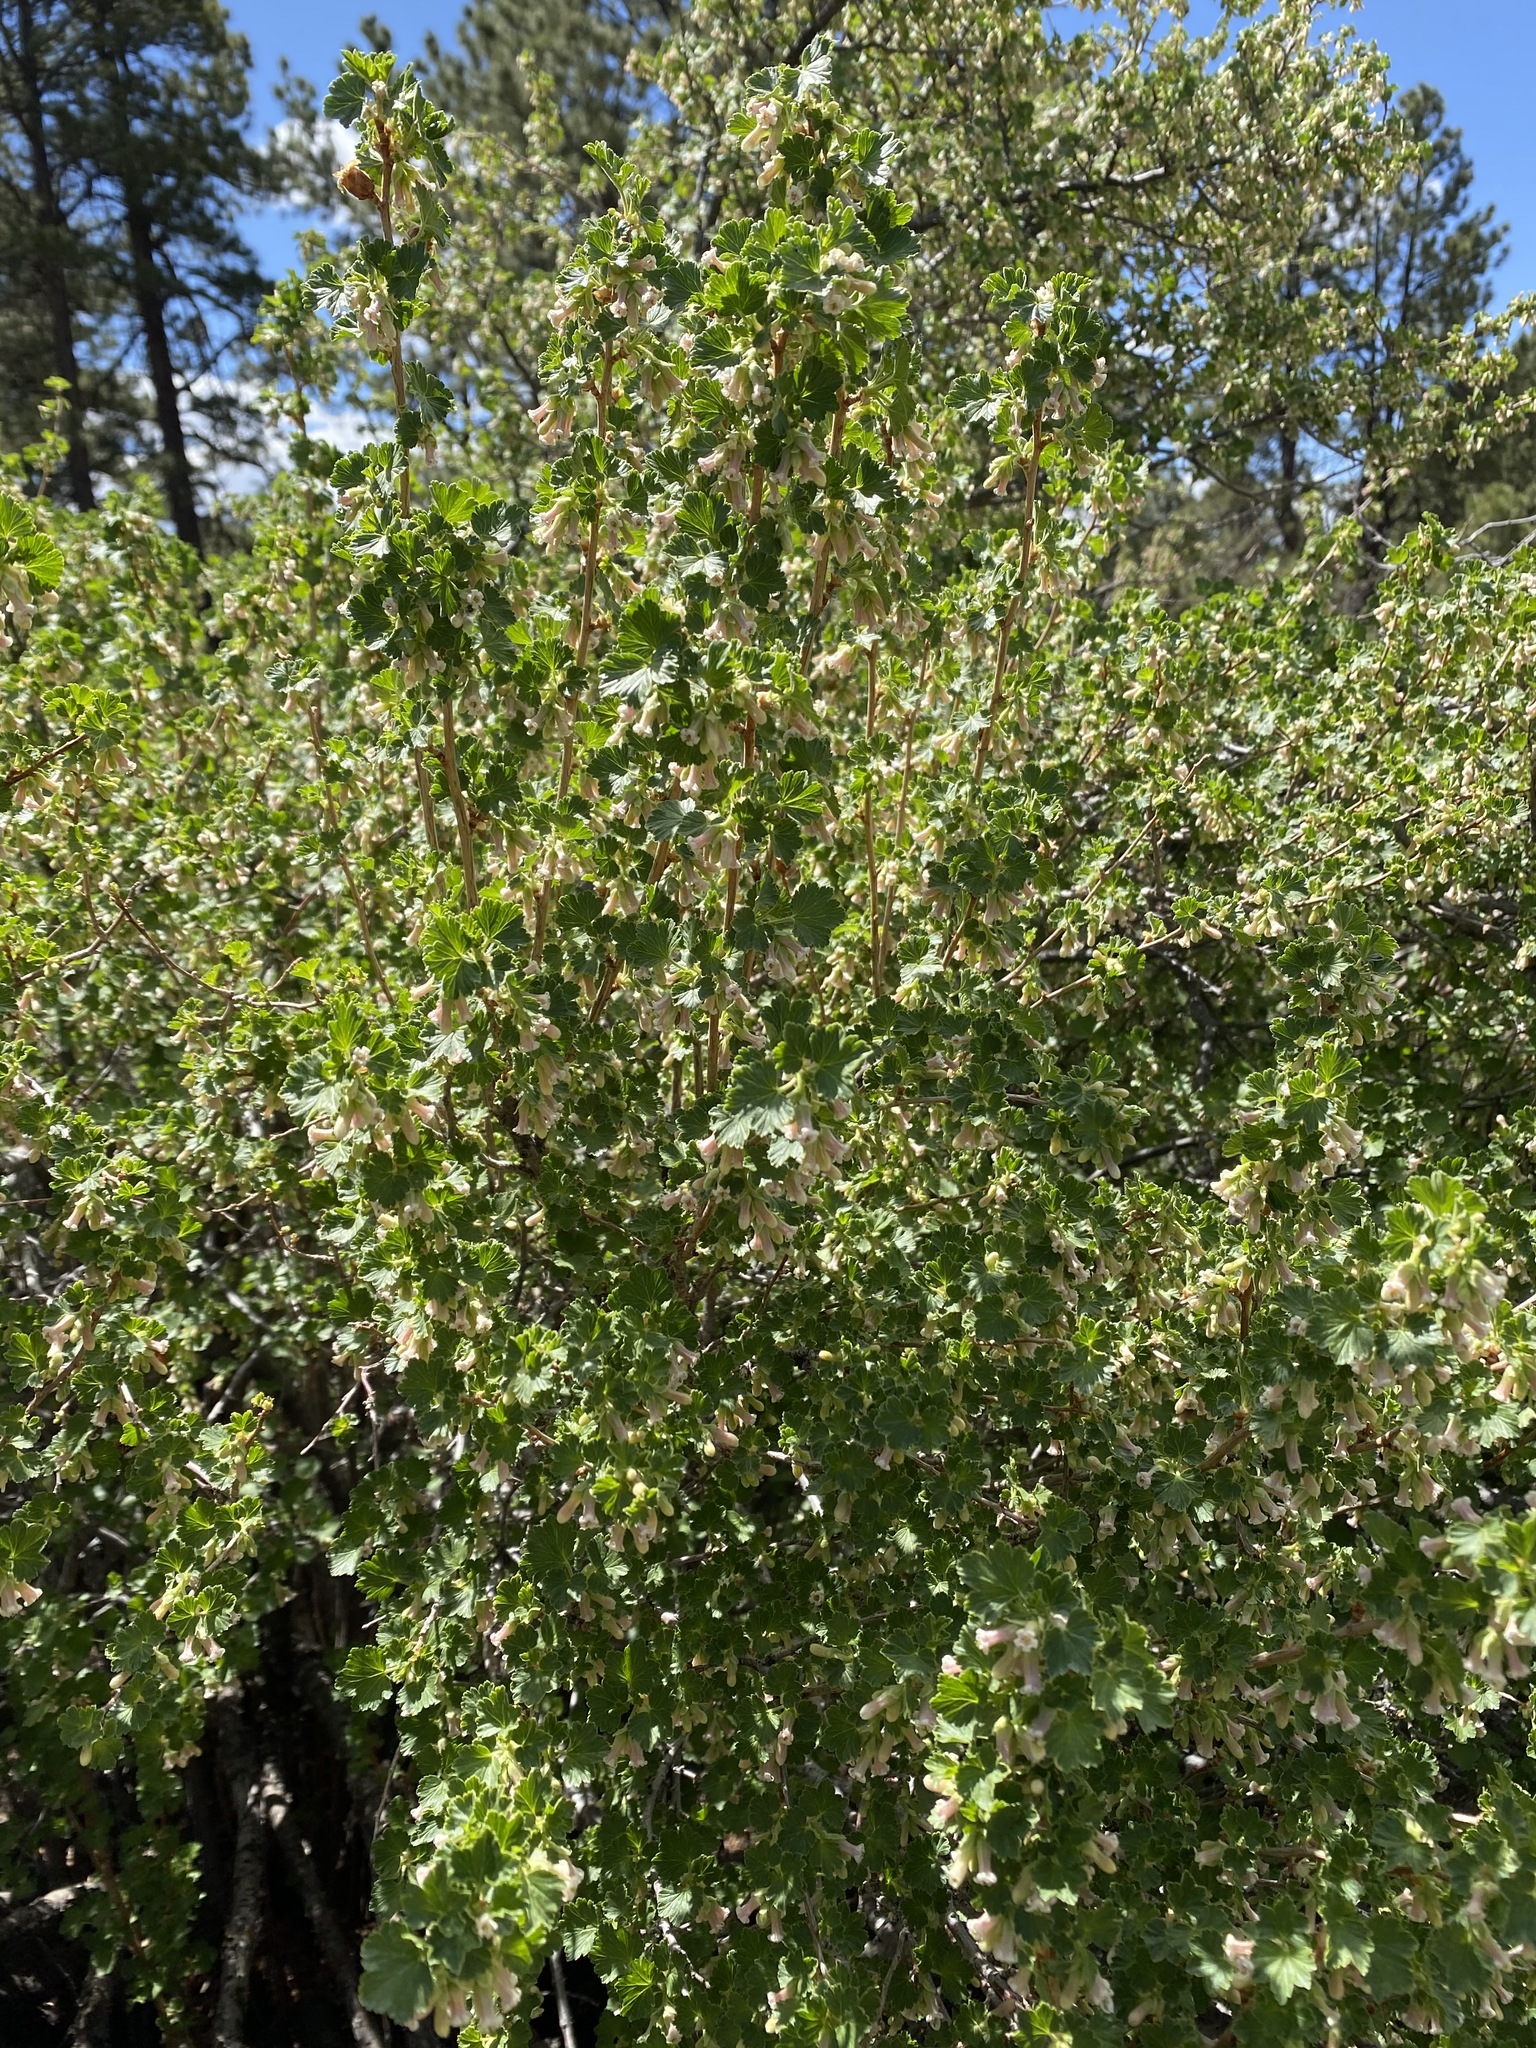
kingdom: Plantae
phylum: Tracheophyta
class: Magnoliopsida
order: Saxifragales
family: Grossulariaceae
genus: Ribes
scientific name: Ribes cereum
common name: Wax currant
